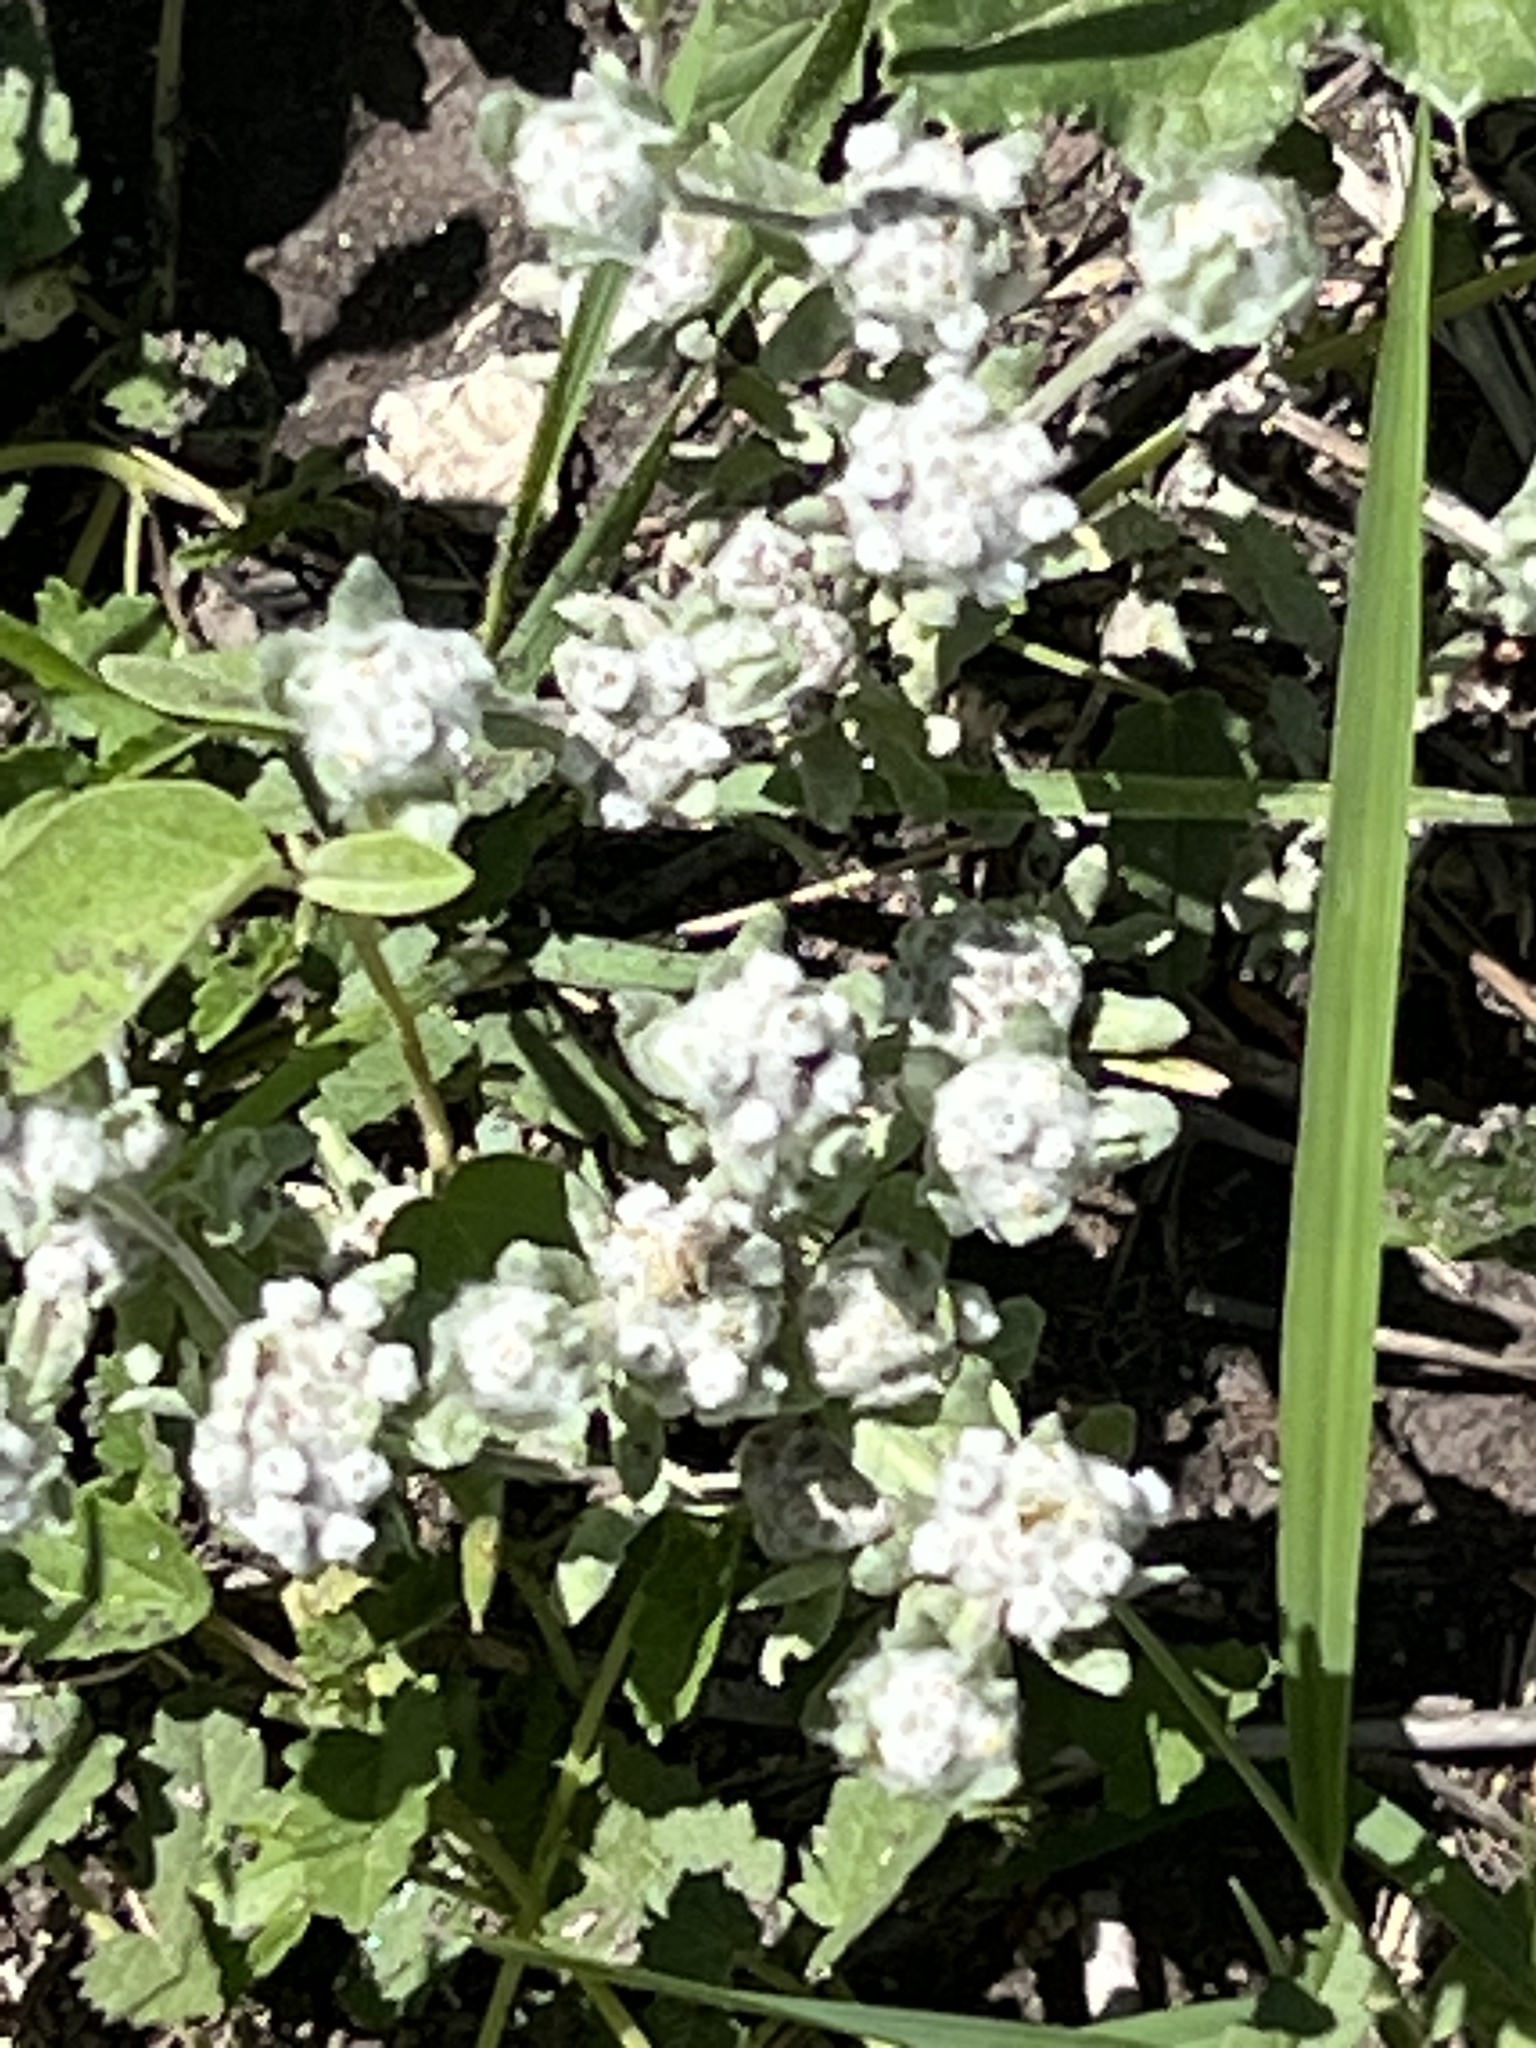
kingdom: Plantae
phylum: Tracheophyta
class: Magnoliopsida
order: Asterales
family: Asteraceae
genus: Diaperia
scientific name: Diaperia verna
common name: Many-stem rabbit-tobacco
